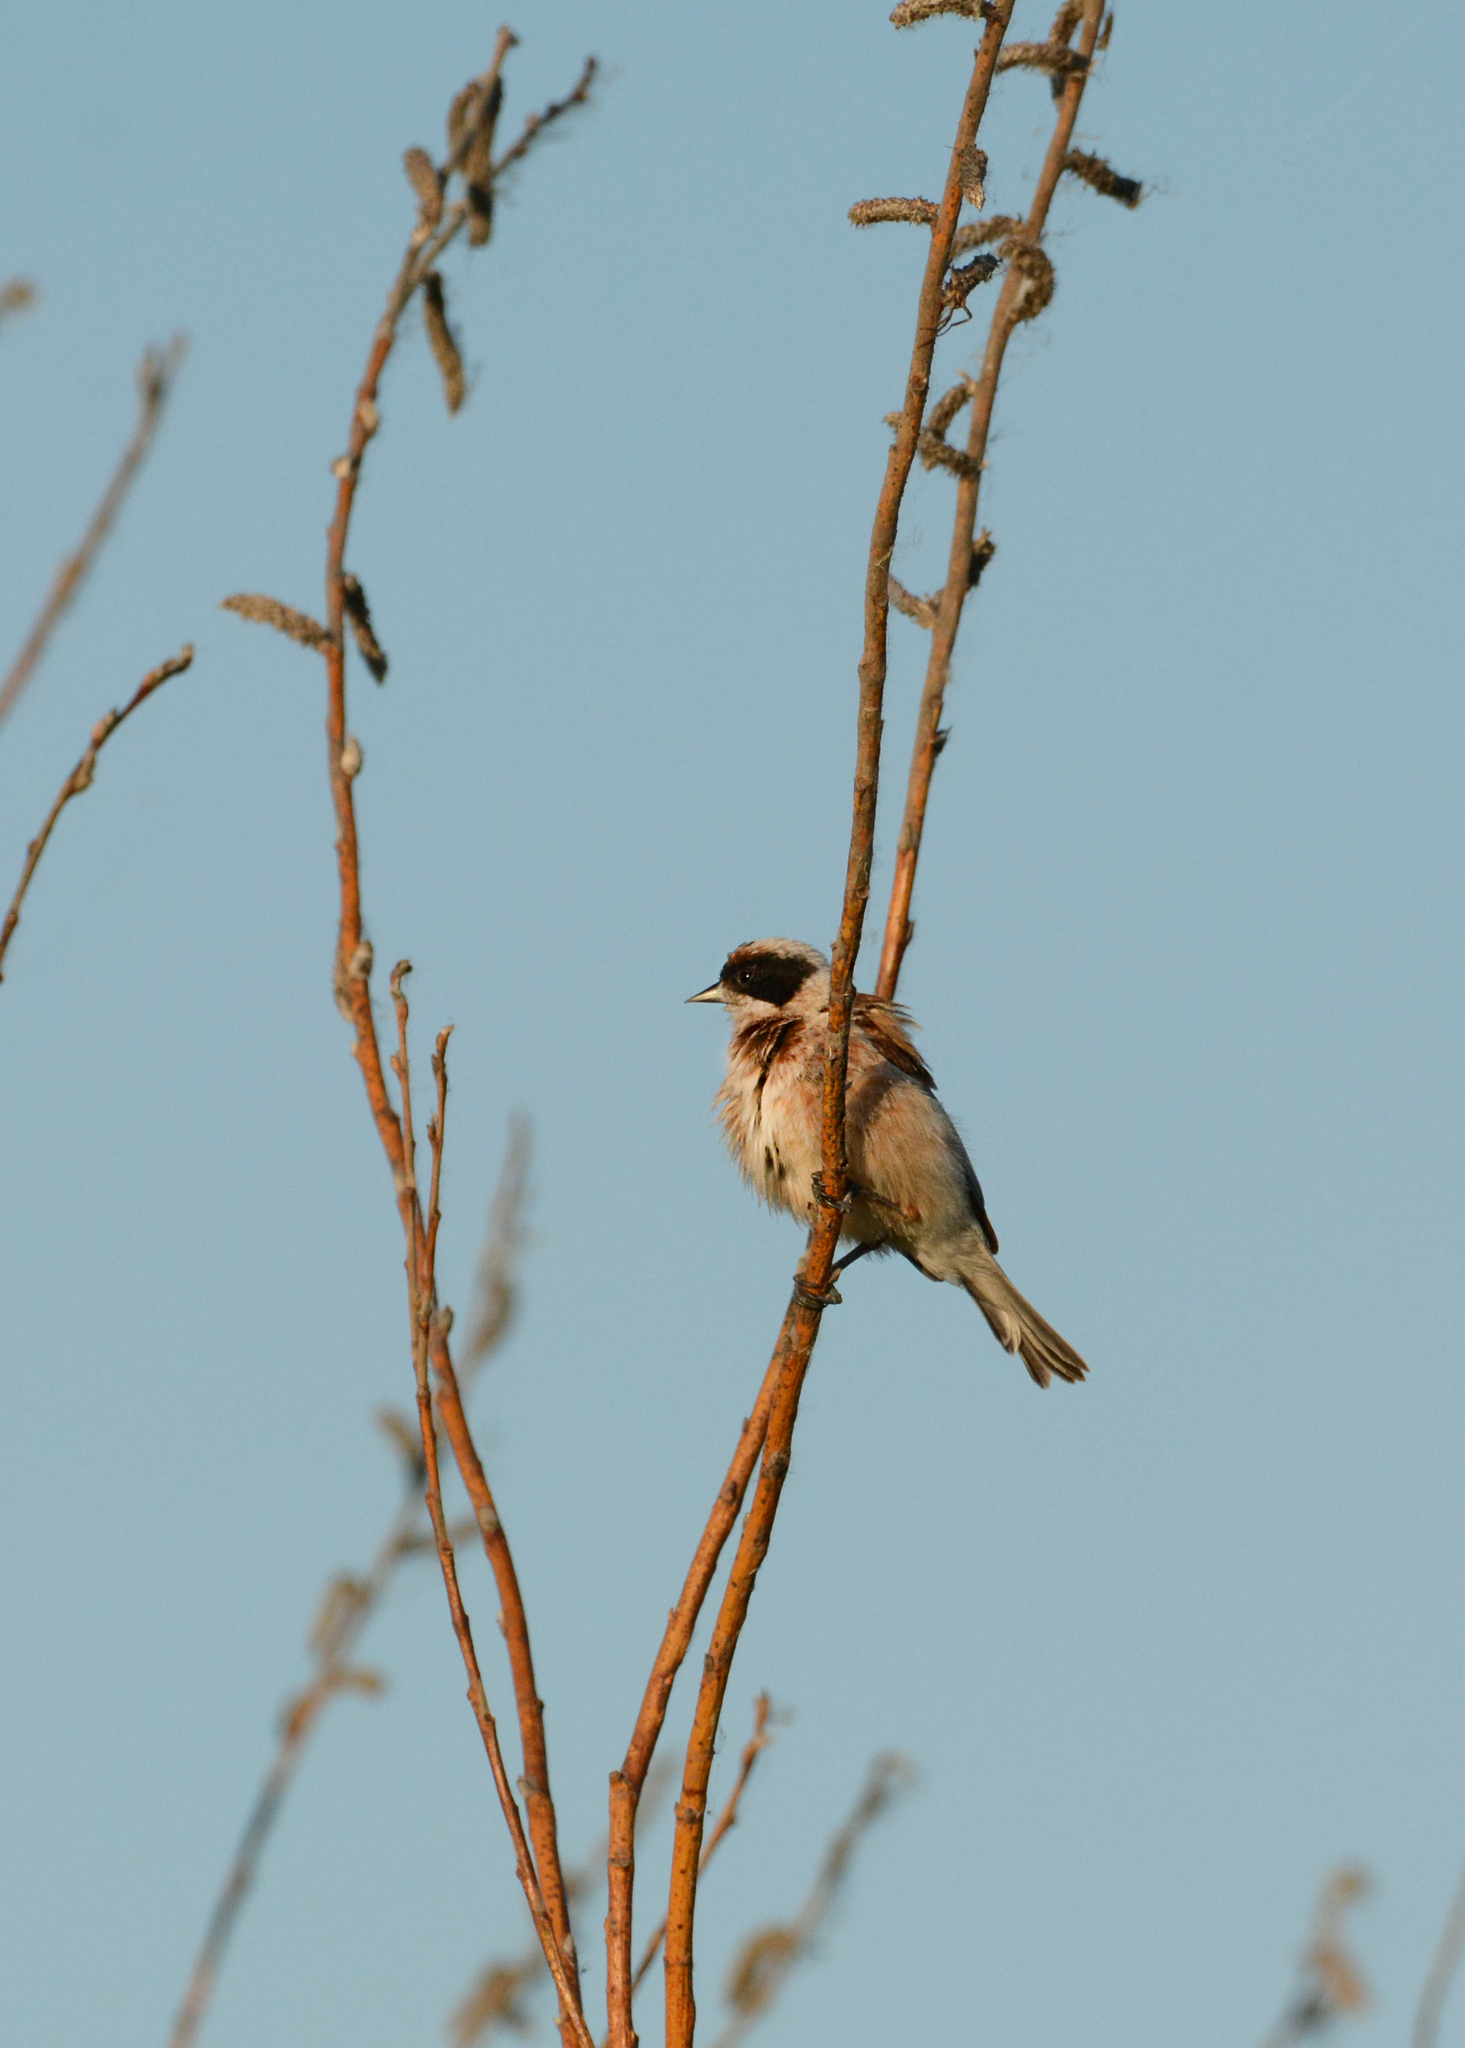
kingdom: Animalia
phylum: Chordata
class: Aves
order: Passeriformes
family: Remizidae
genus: Remiz
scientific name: Remiz pendulinus
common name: Eurasian penduline tit
